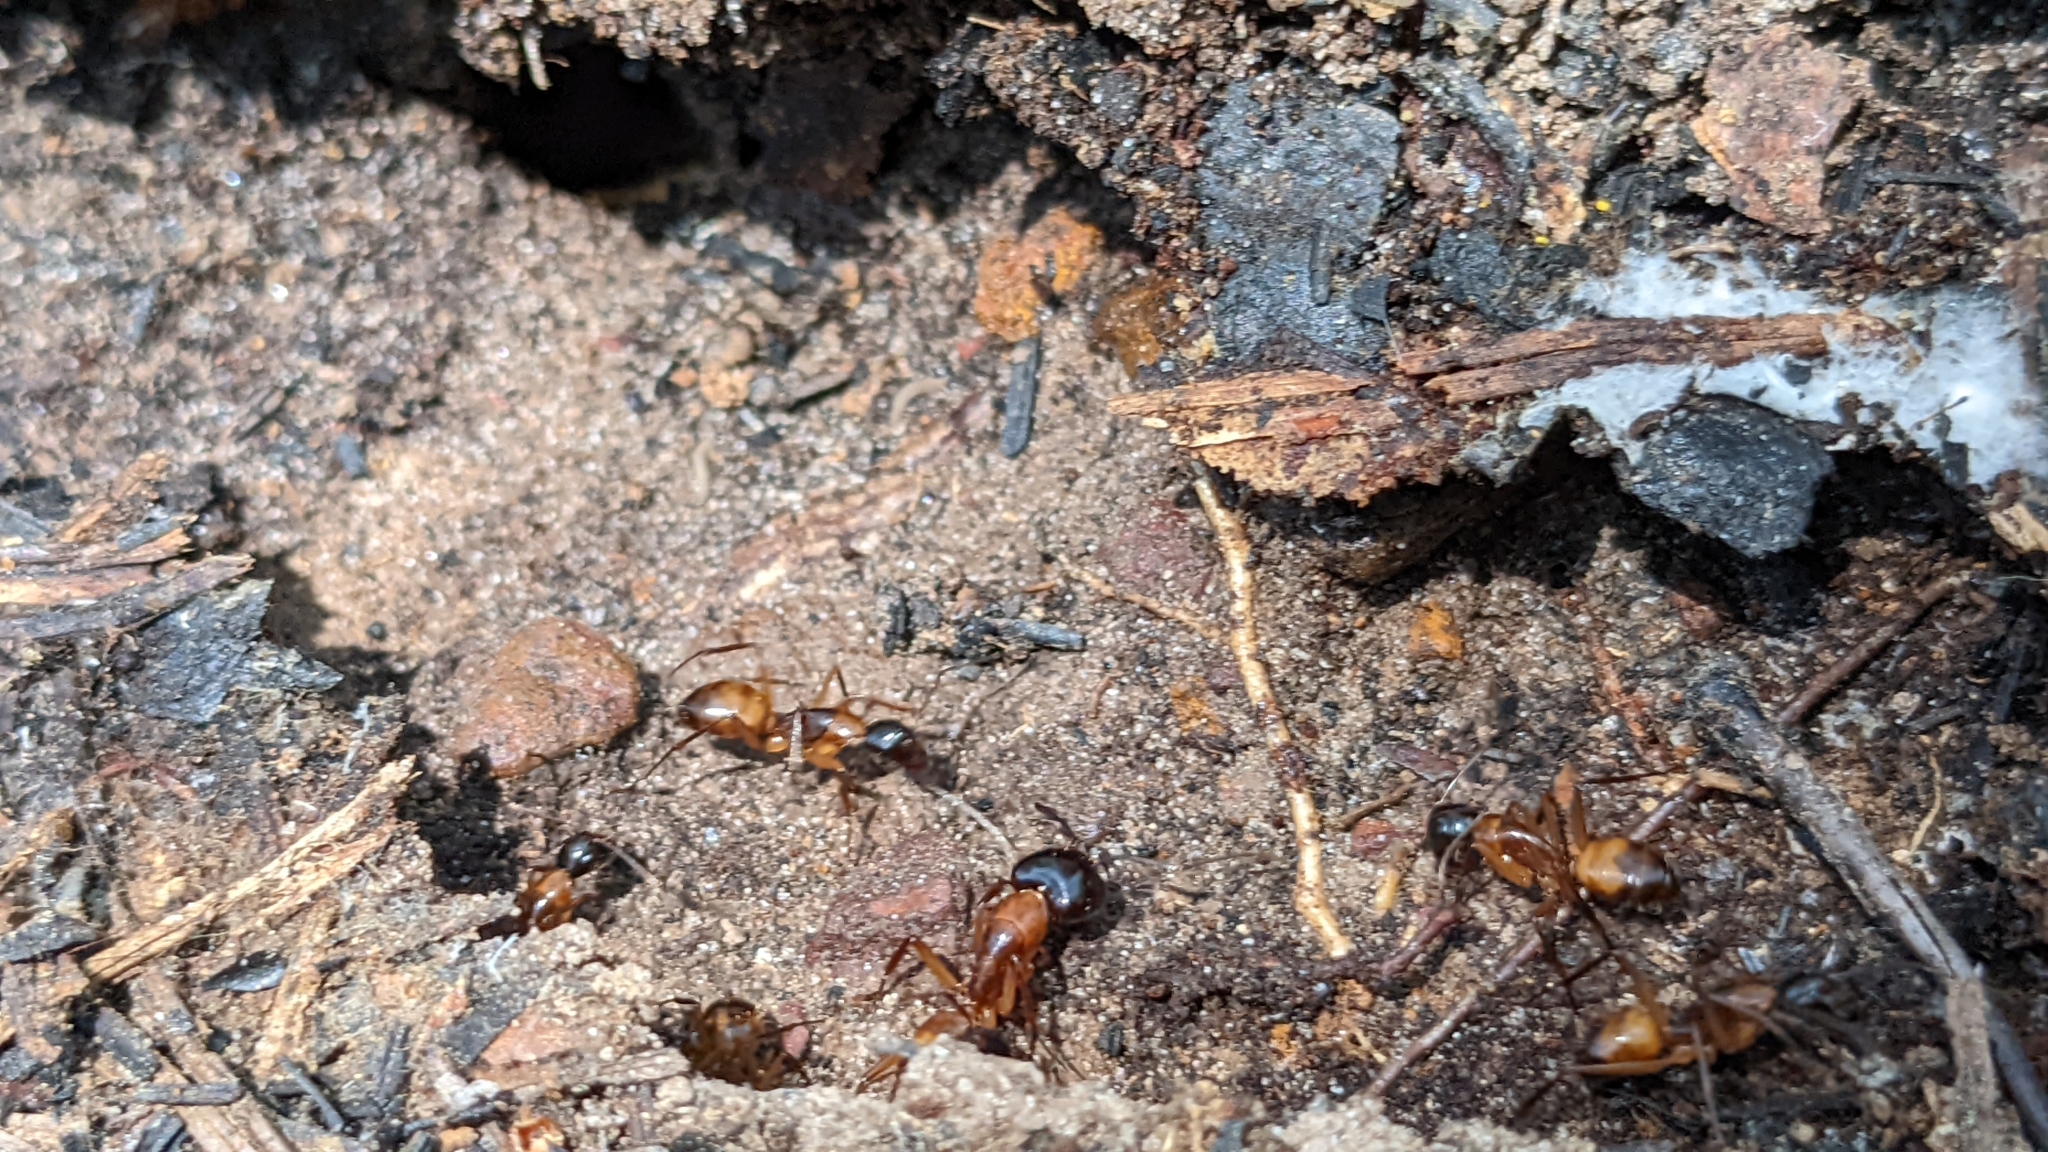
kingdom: Animalia
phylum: Arthropoda
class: Insecta
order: Hymenoptera
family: Formicidae
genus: Camponotus
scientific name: Camponotus americanus
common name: American carpenter ant
